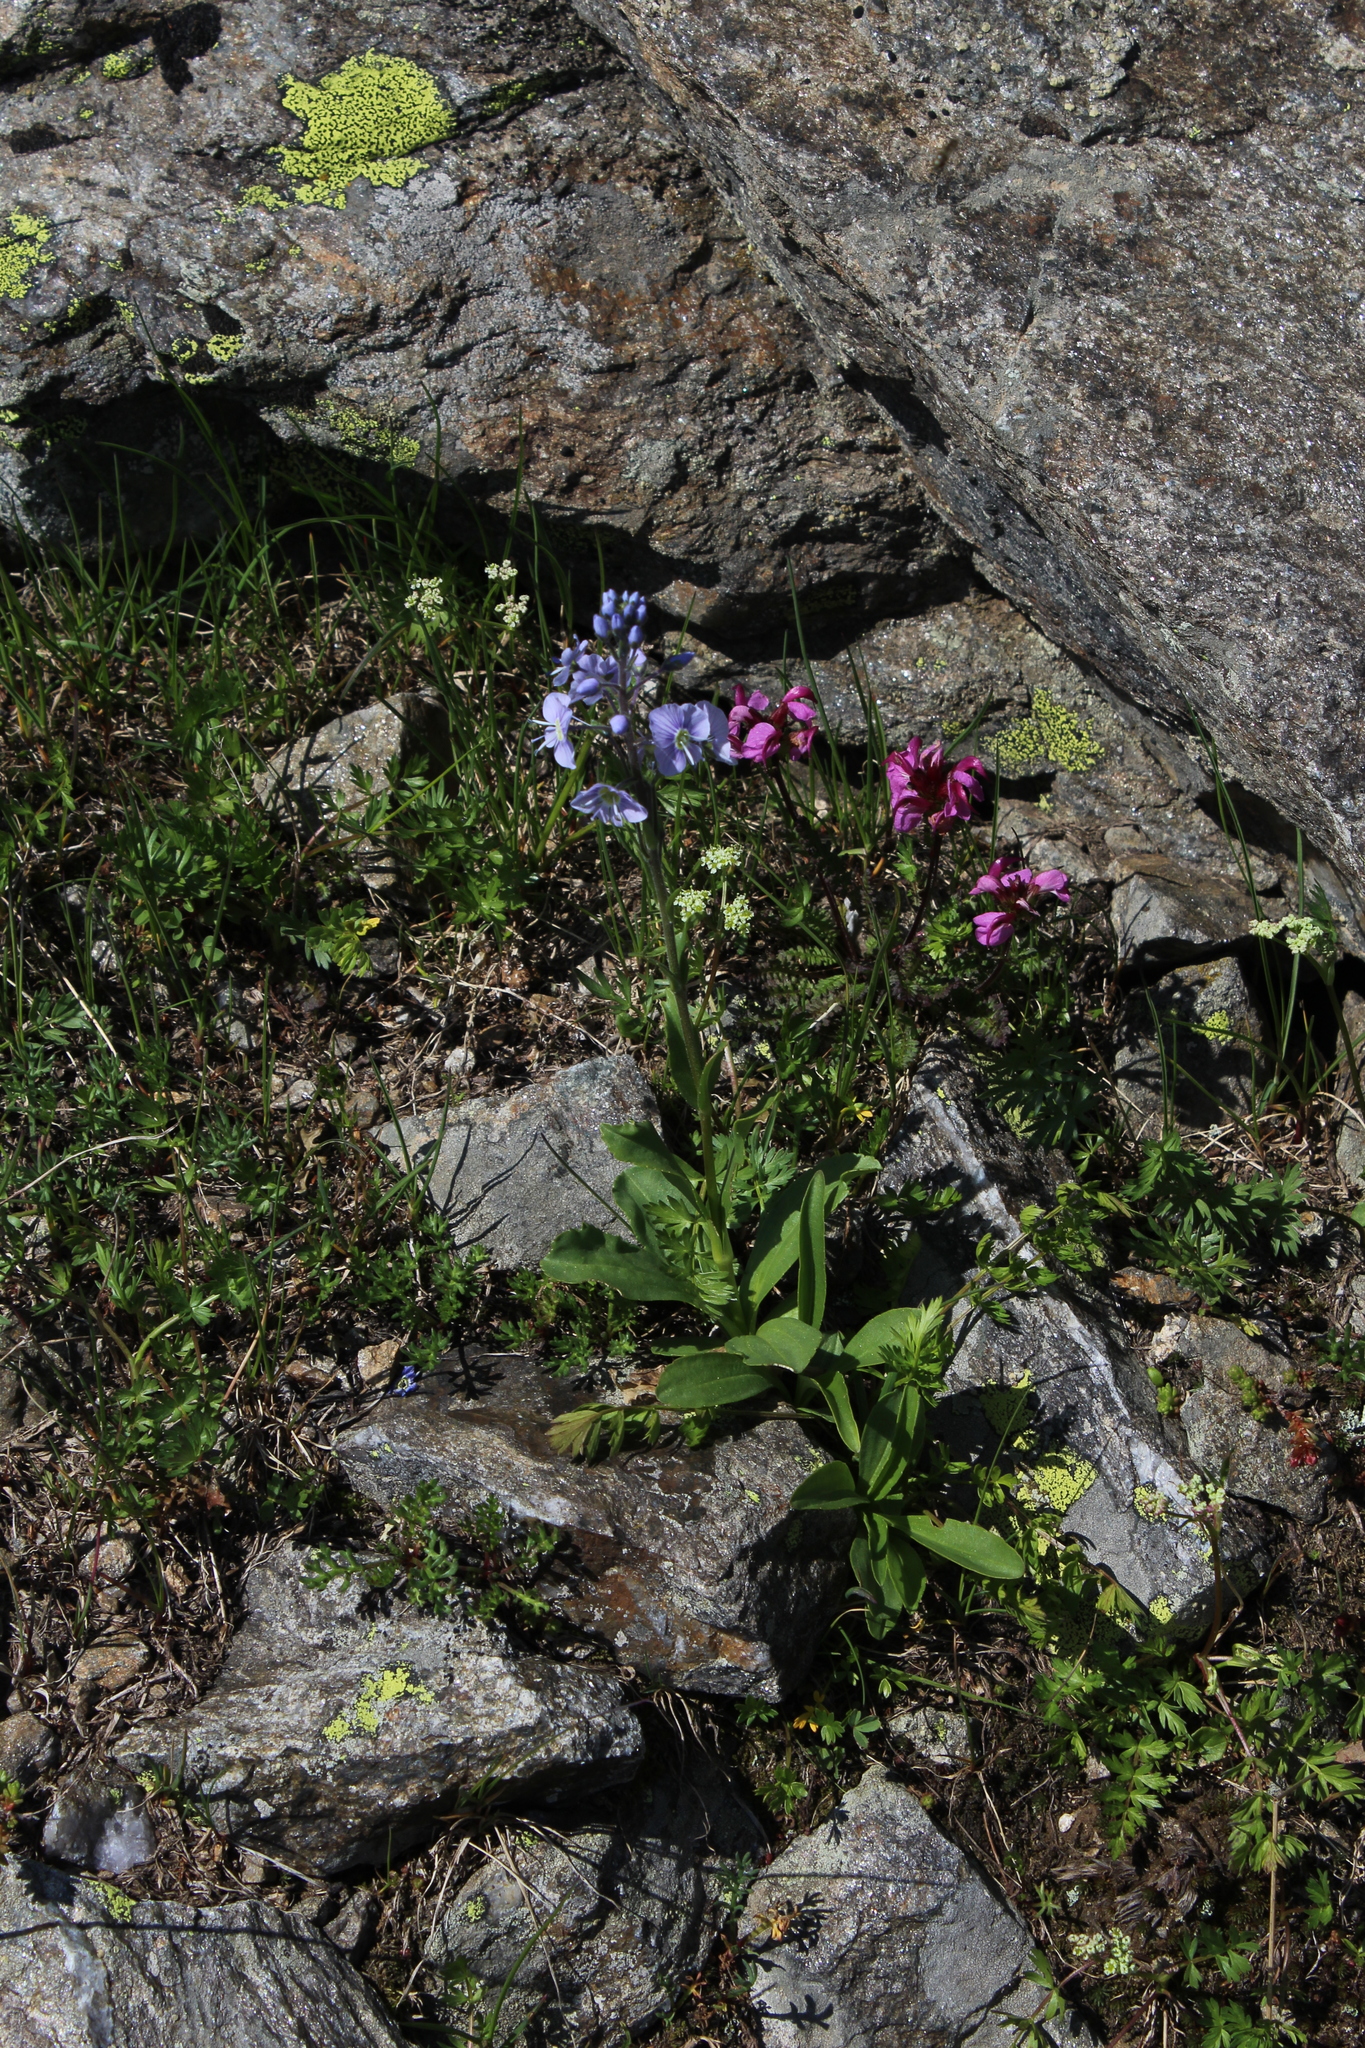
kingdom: Plantae
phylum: Tracheophyta
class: Magnoliopsida
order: Lamiales
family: Plantaginaceae
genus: Veronica
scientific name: Veronica gentianoides
